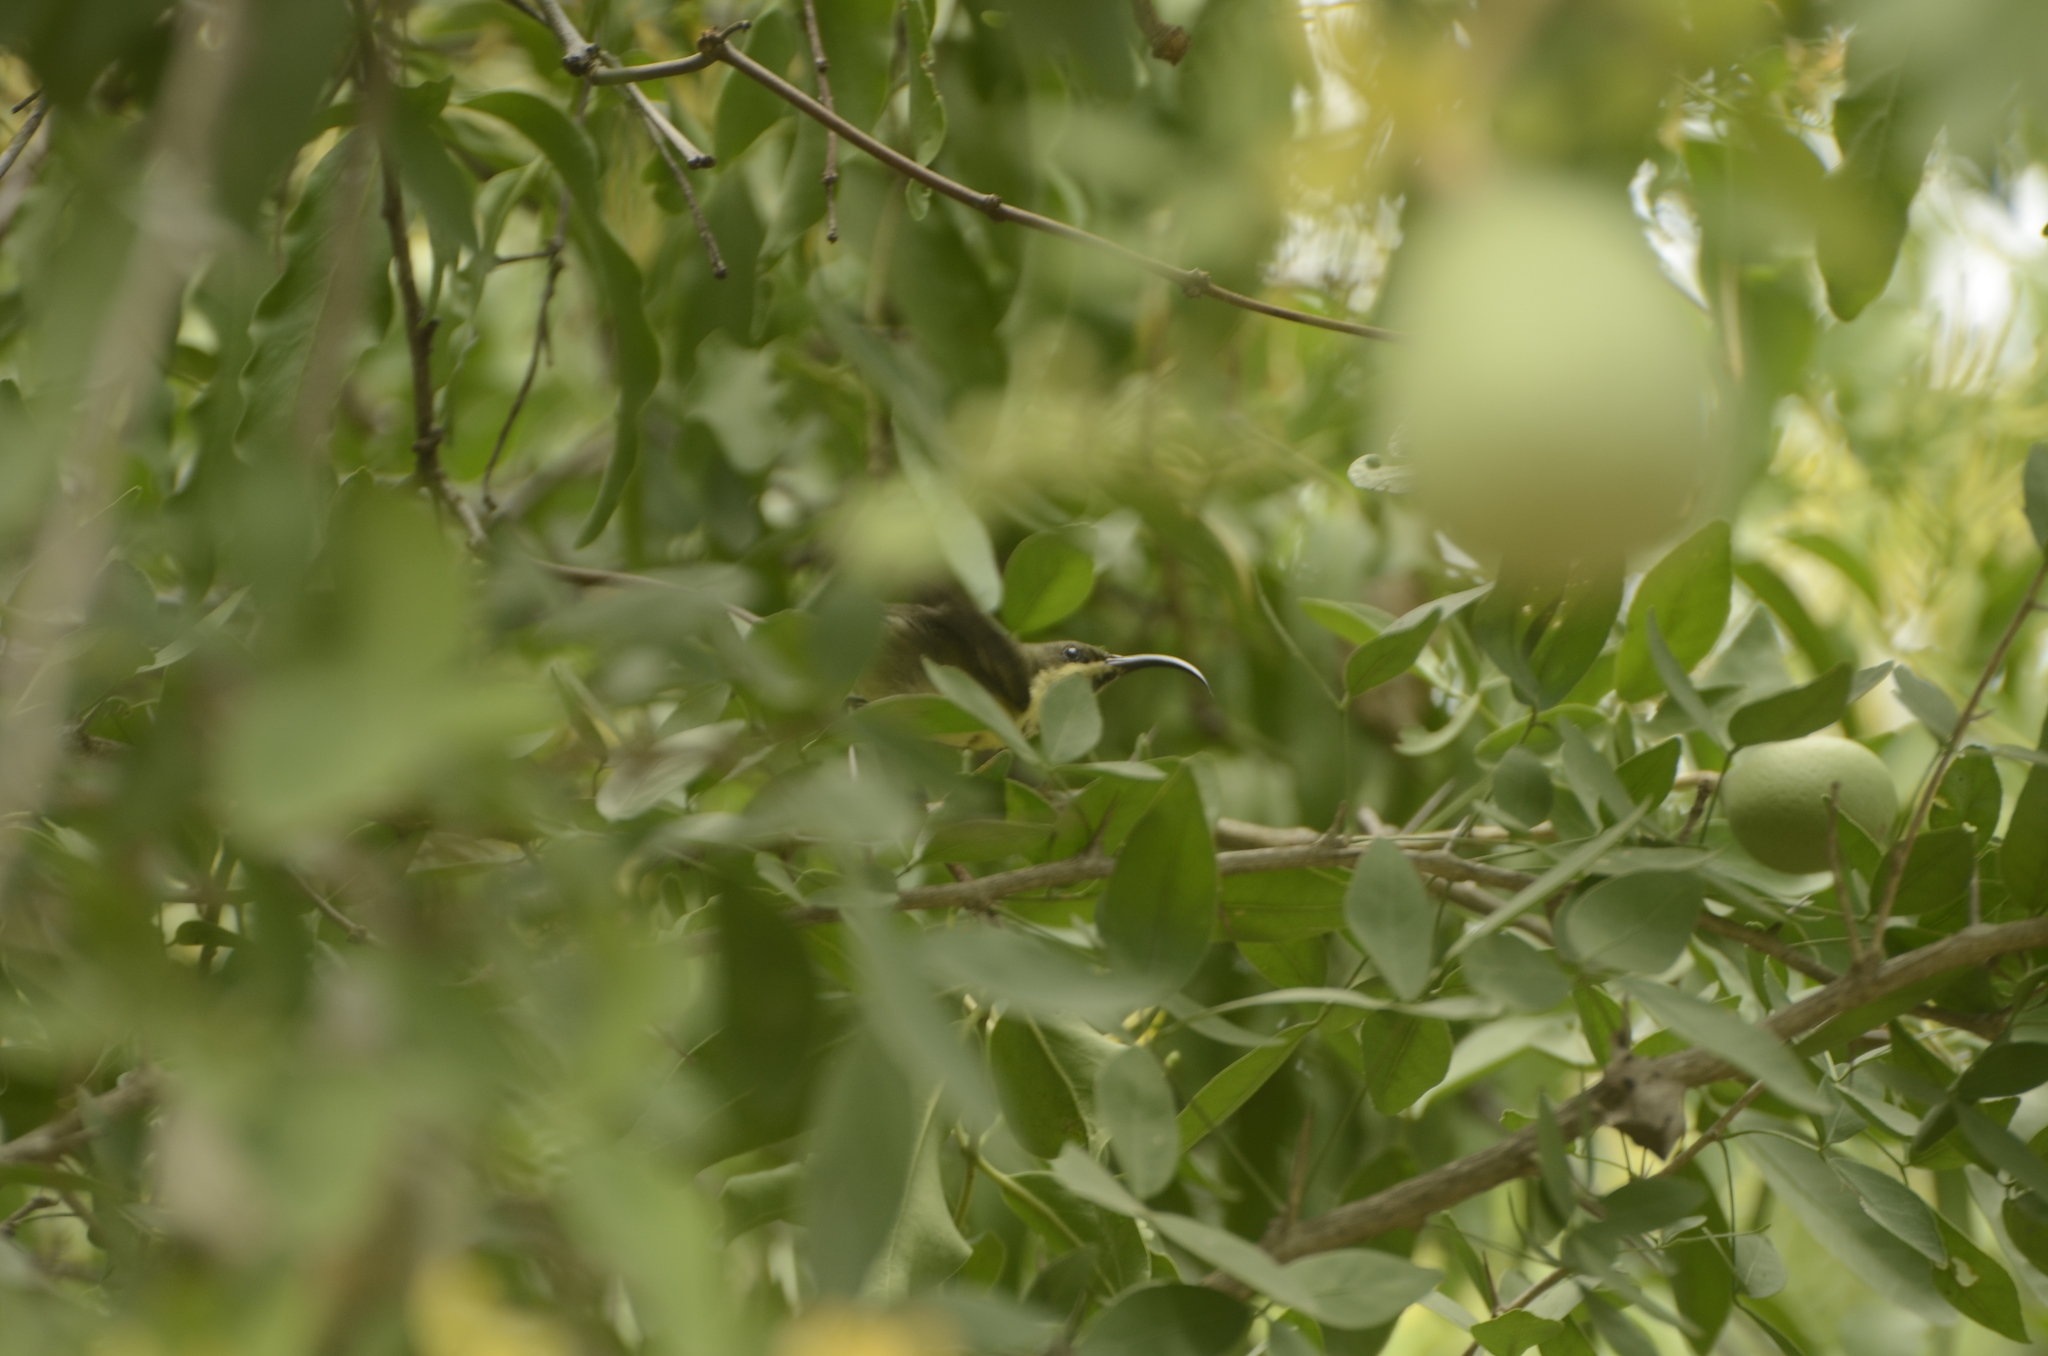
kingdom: Animalia
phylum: Chordata
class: Aves
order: Passeriformes
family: Nectariniidae
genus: Cinnyris
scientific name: Cinnyris lotenius
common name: Loten's sunbird
